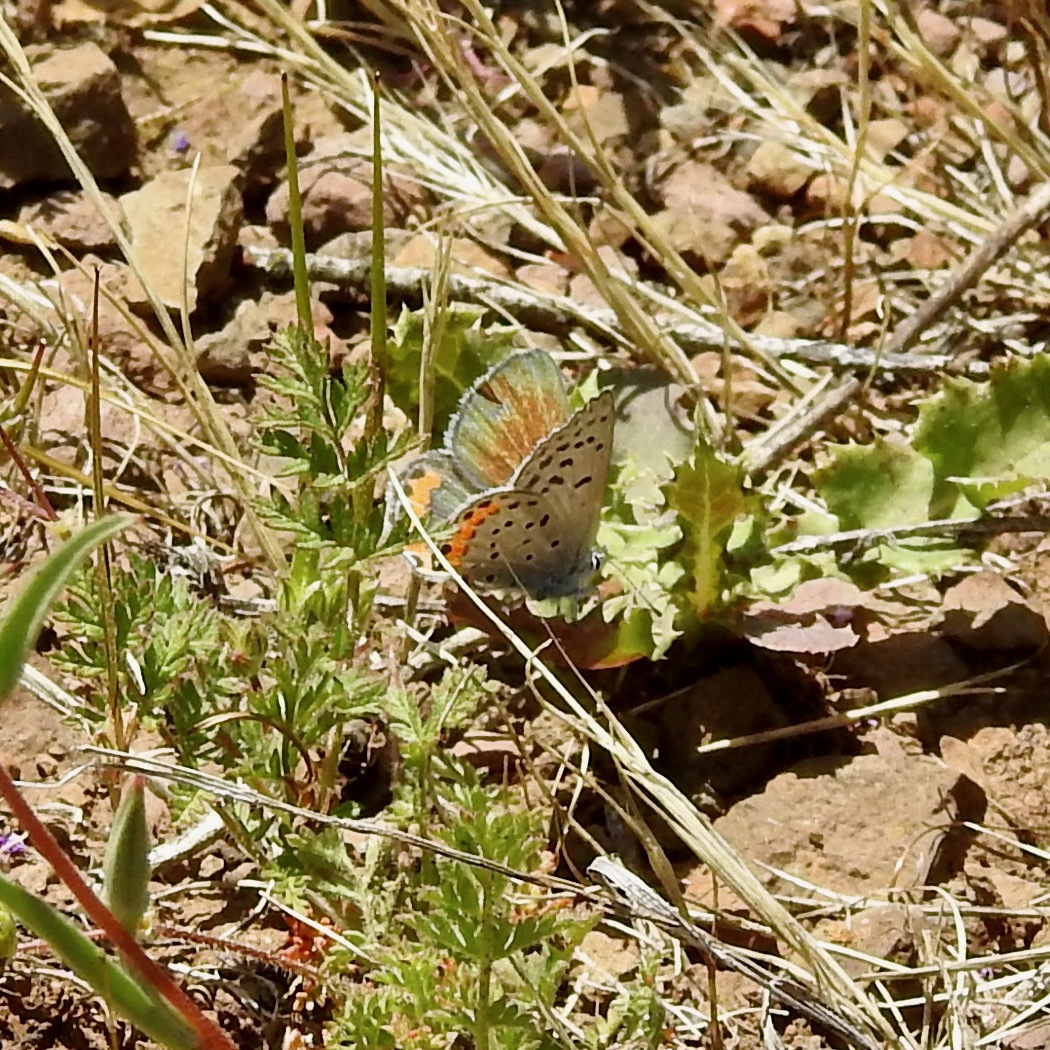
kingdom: Plantae
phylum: Tracheophyta
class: Magnoliopsida
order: Geraniales
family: Geraniaceae
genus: Erodium
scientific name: Erodium cicutarium
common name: Common stork's-bill
